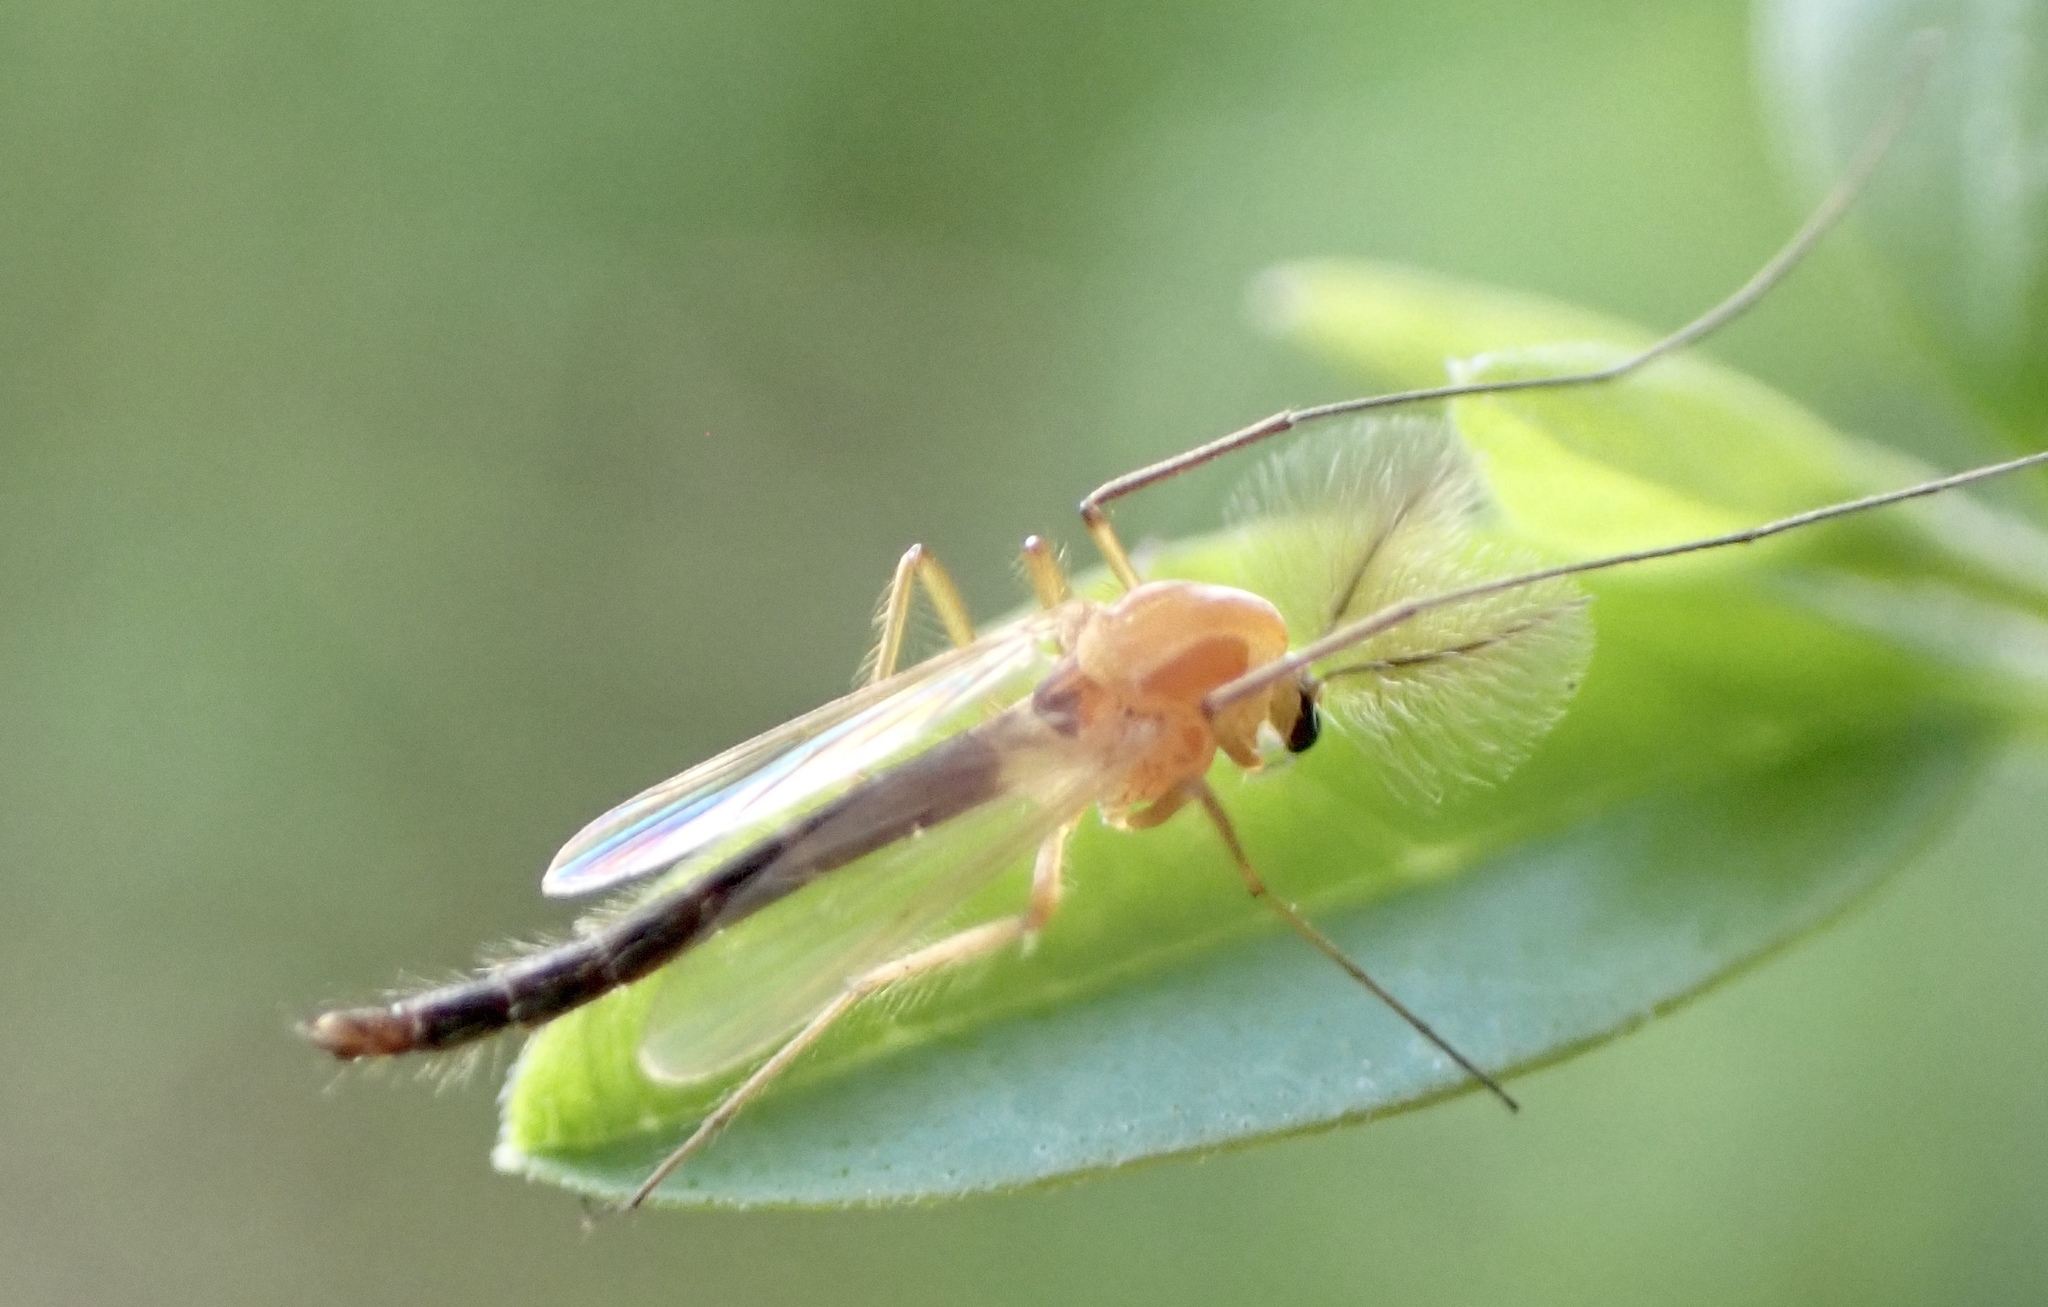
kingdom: Animalia
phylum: Arthropoda
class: Insecta
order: Diptera
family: Chironomidae
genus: Chironomus
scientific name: Chironomus ochreatus
